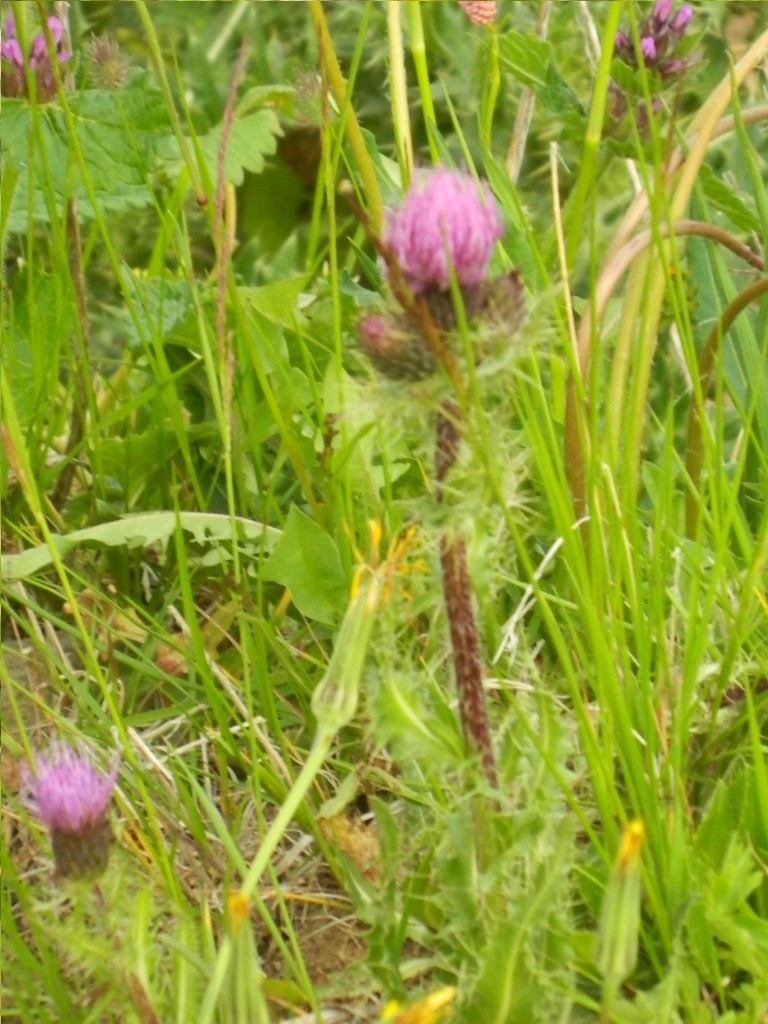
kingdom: Plantae
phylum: Tracheophyta
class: Magnoliopsida
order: Asterales
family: Asteraceae
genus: Cirsium
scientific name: Cirsium simplex
